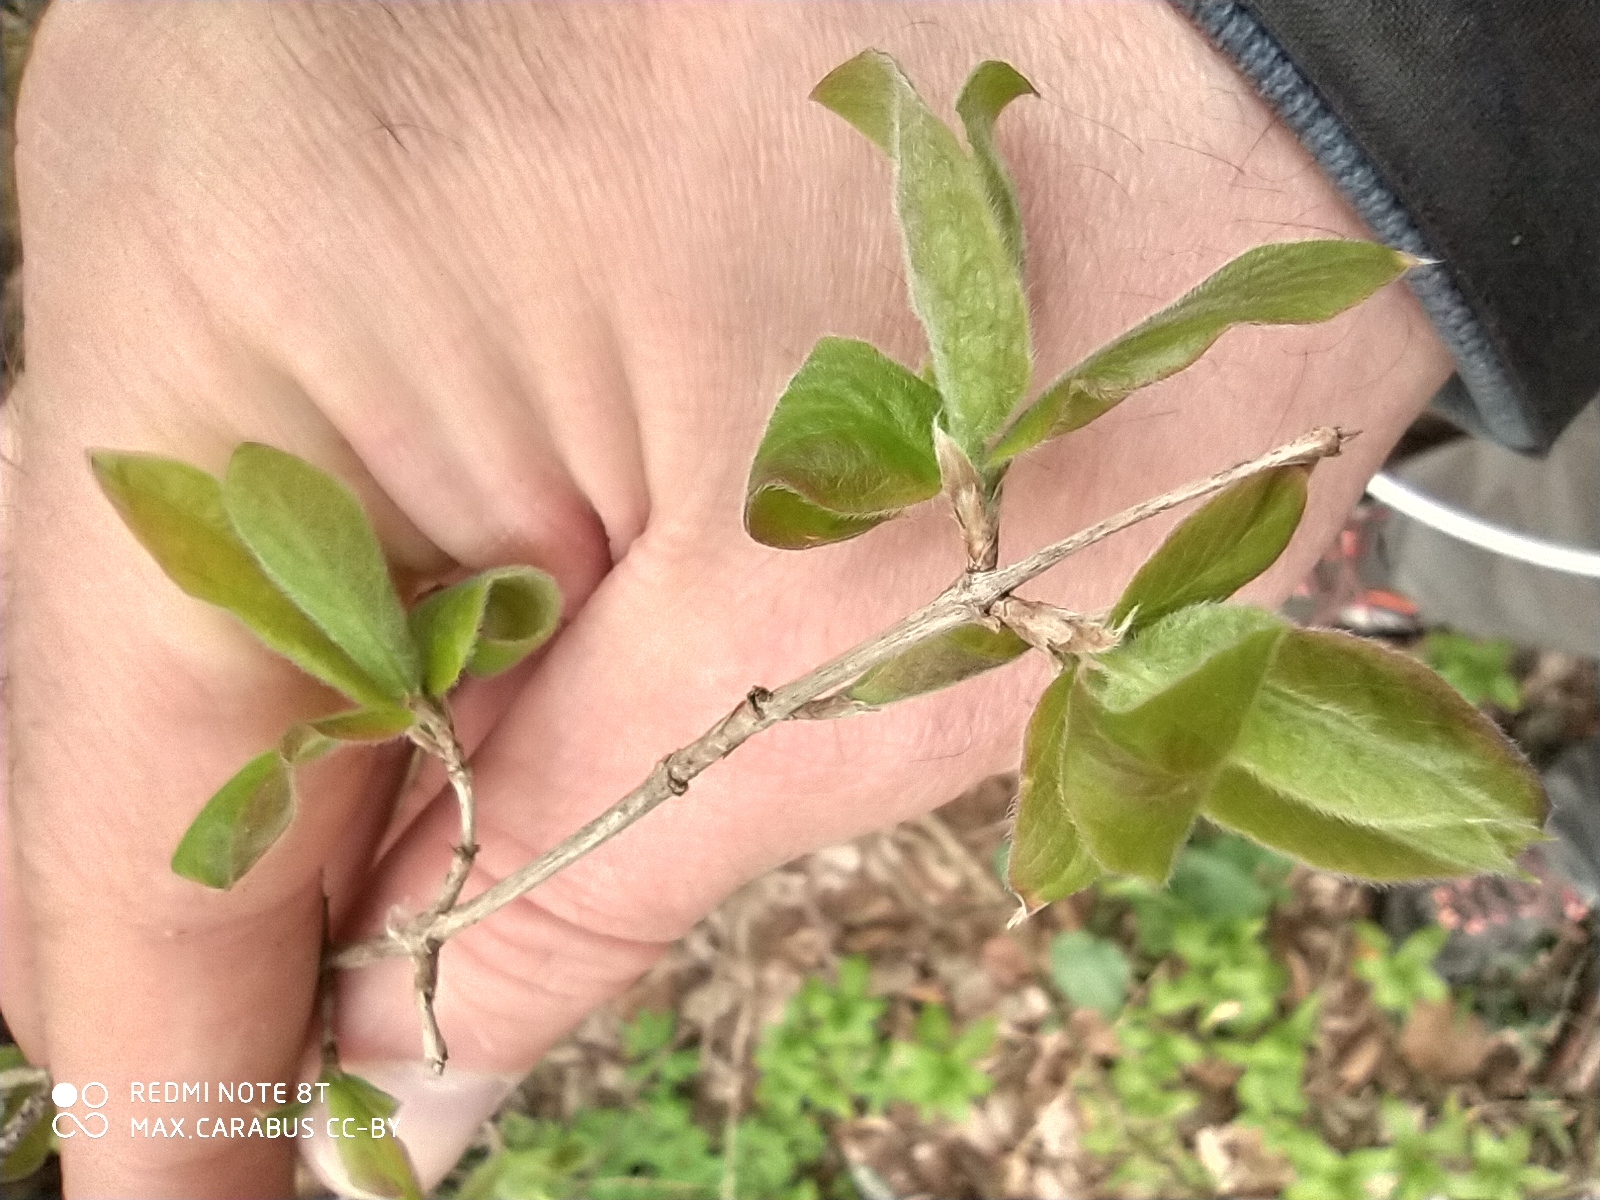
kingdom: Plantae
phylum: Tracheophyta
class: Magnoliopsida
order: Dipsacales
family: Caprifoliaceae
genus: Lonicera
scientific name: Lonicera xylosteum
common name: Fly honeysuckle
